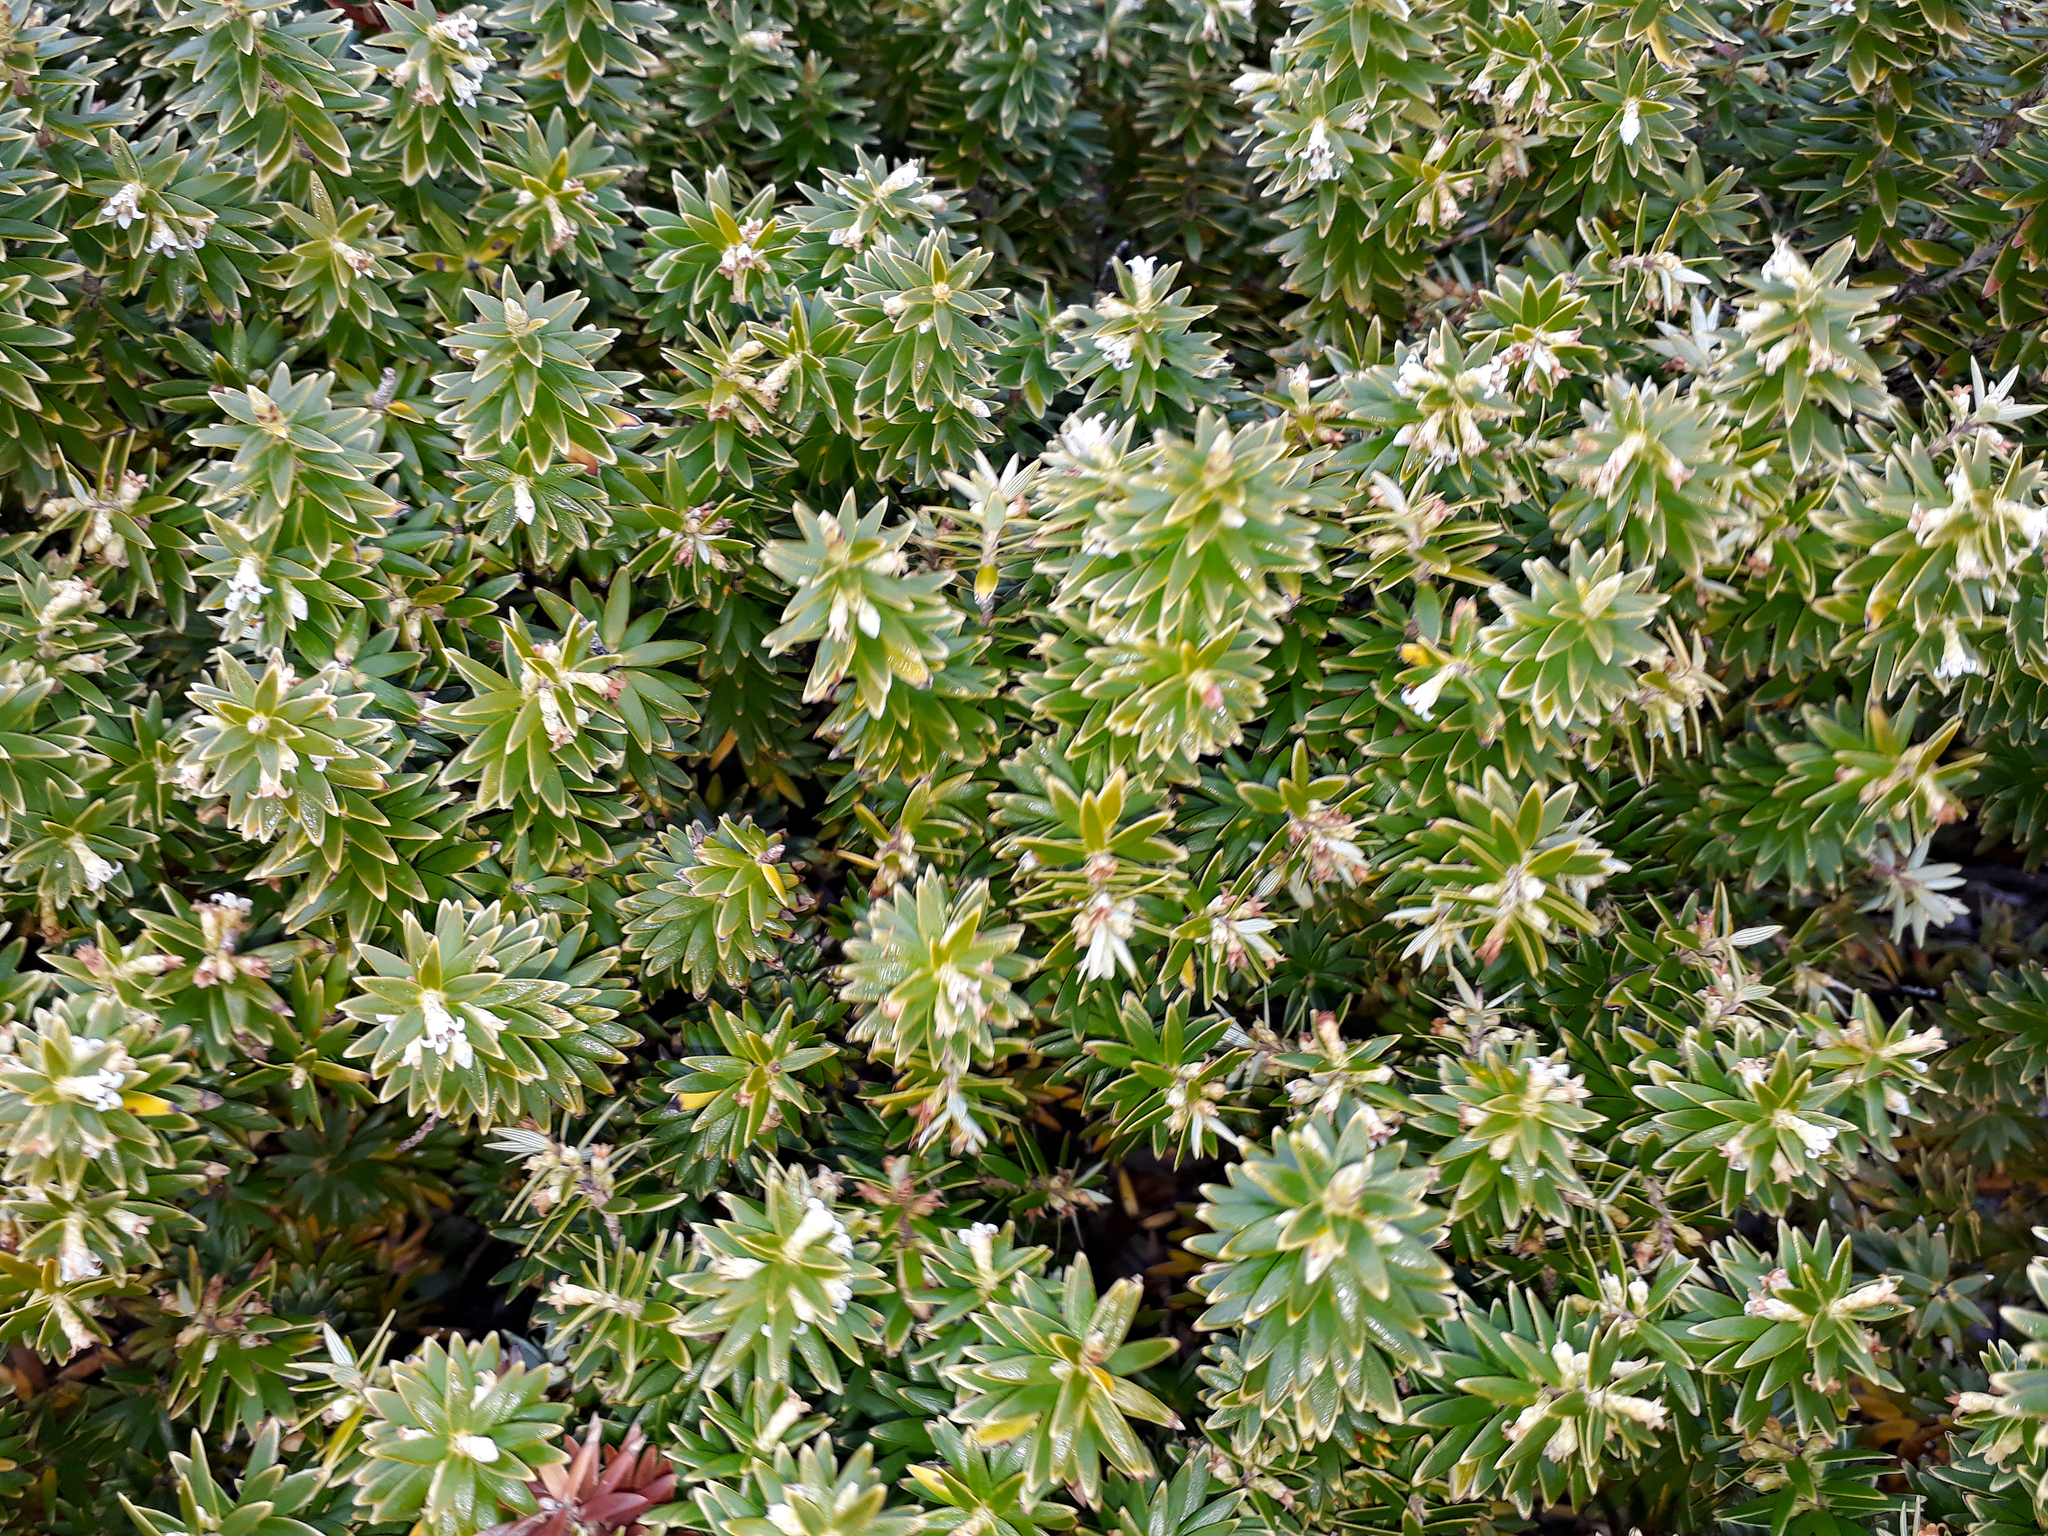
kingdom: Plantae
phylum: Tracheophyta
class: Magnoliopsida
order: Ericales
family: Ericaceae
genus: Leptecophylla
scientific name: Leptecophylla robusta
